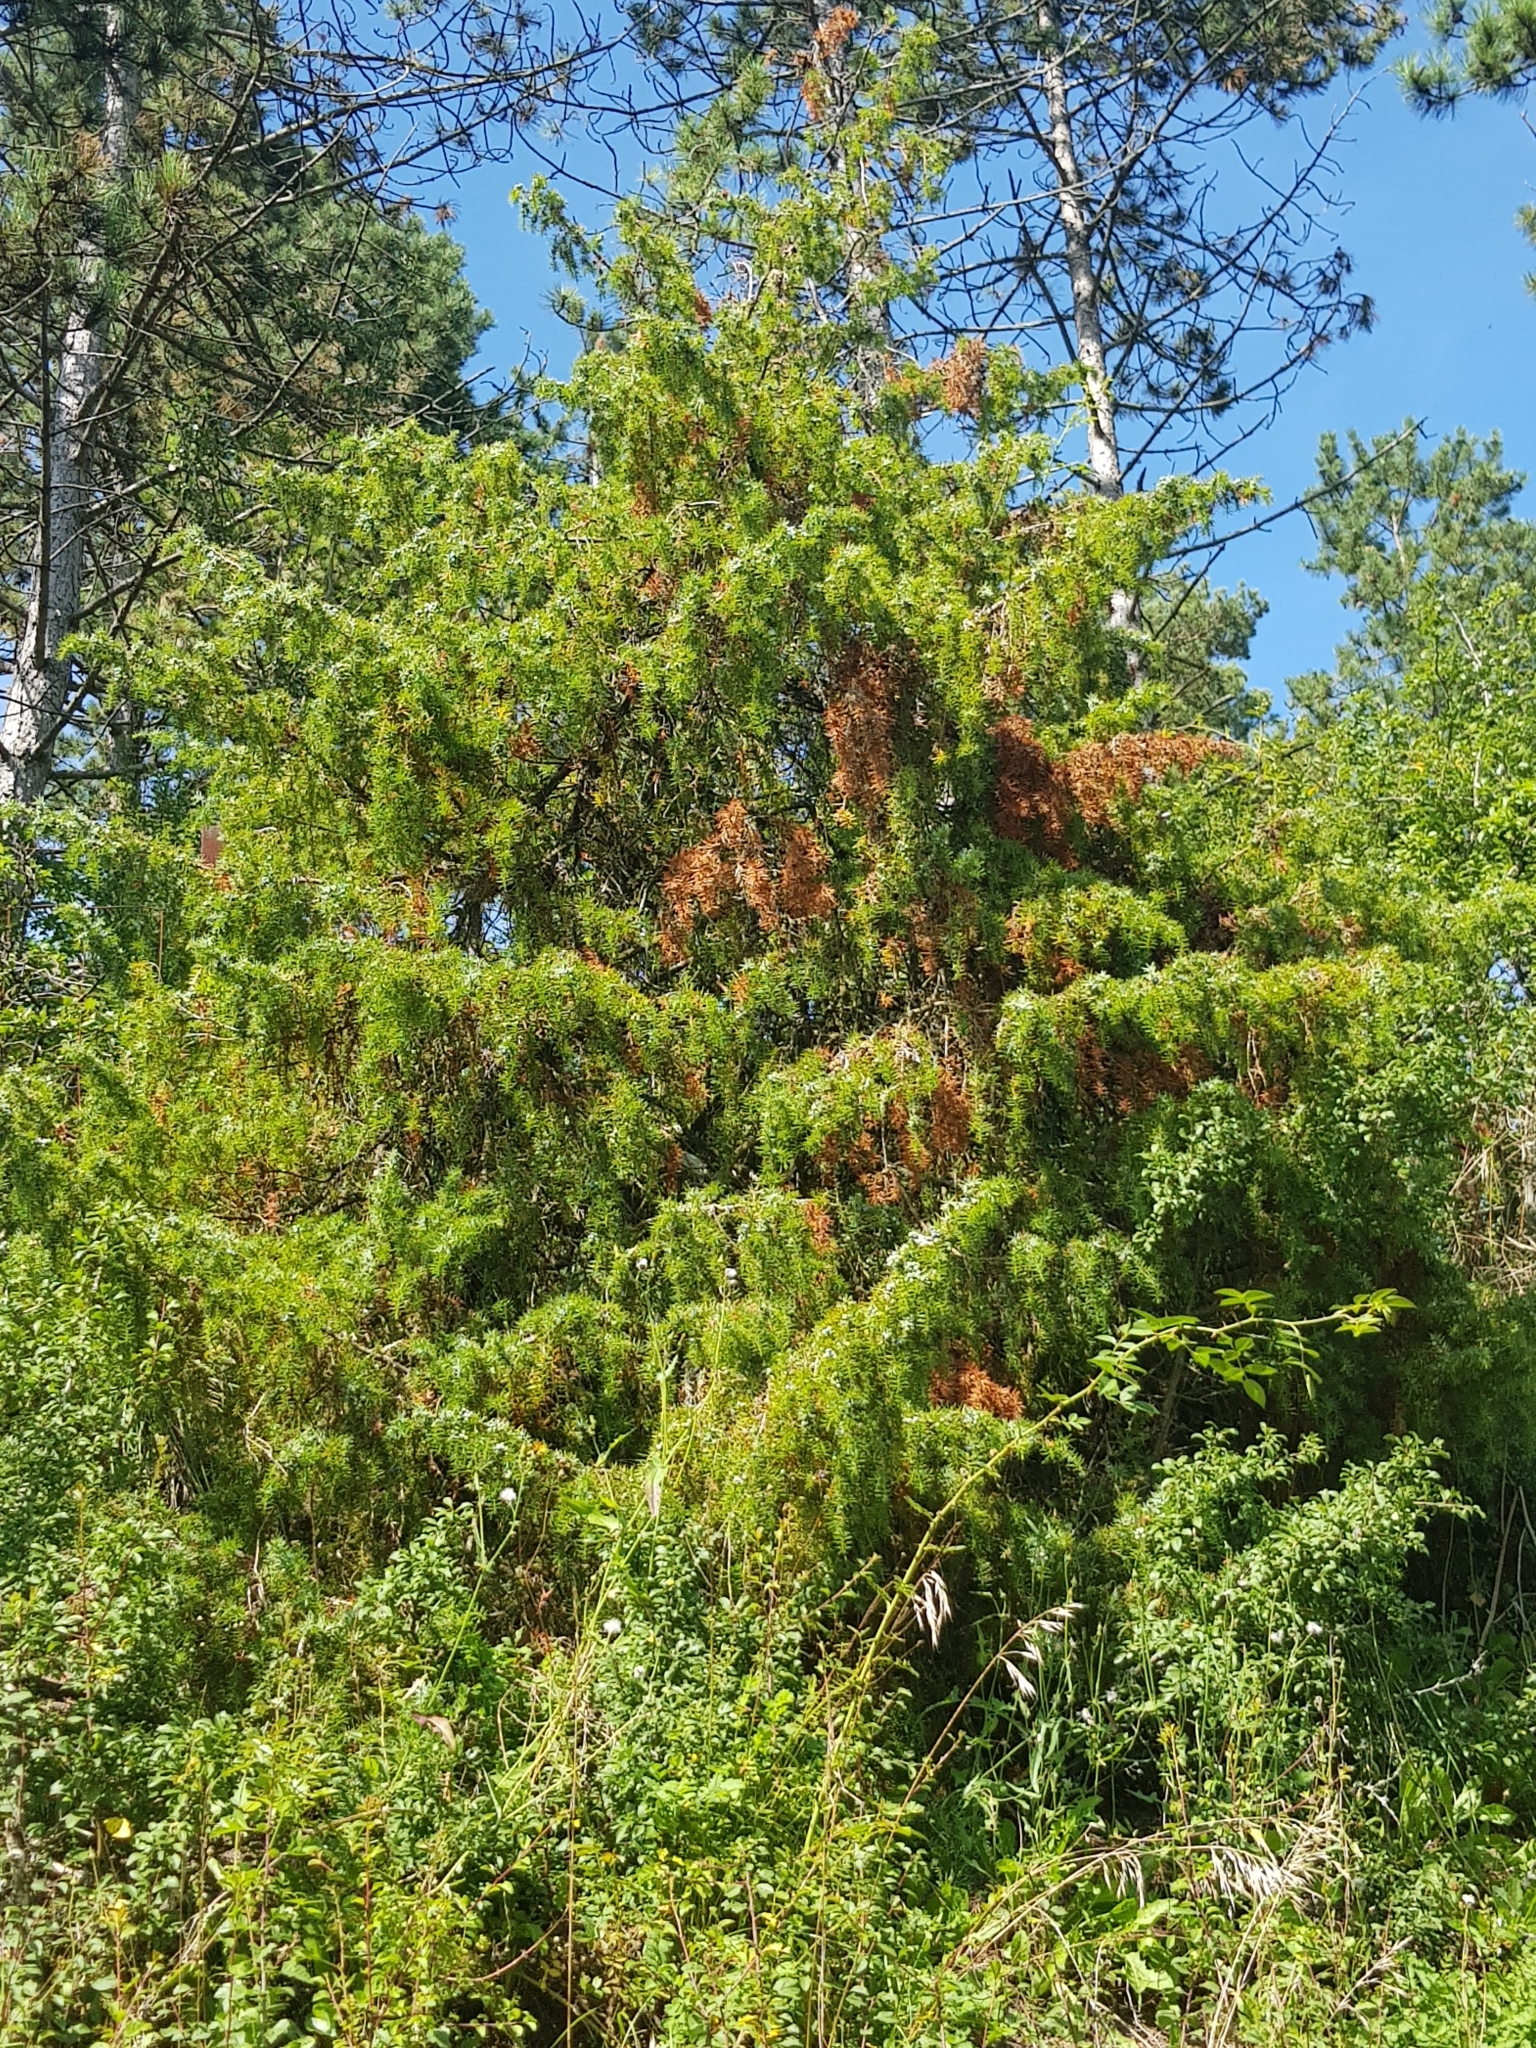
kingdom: Plantae
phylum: Tracheophyta
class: Pinopsida
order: Pinales
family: Cupressaceae
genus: Juniperus
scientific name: Juniperus communis
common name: Common juniper
